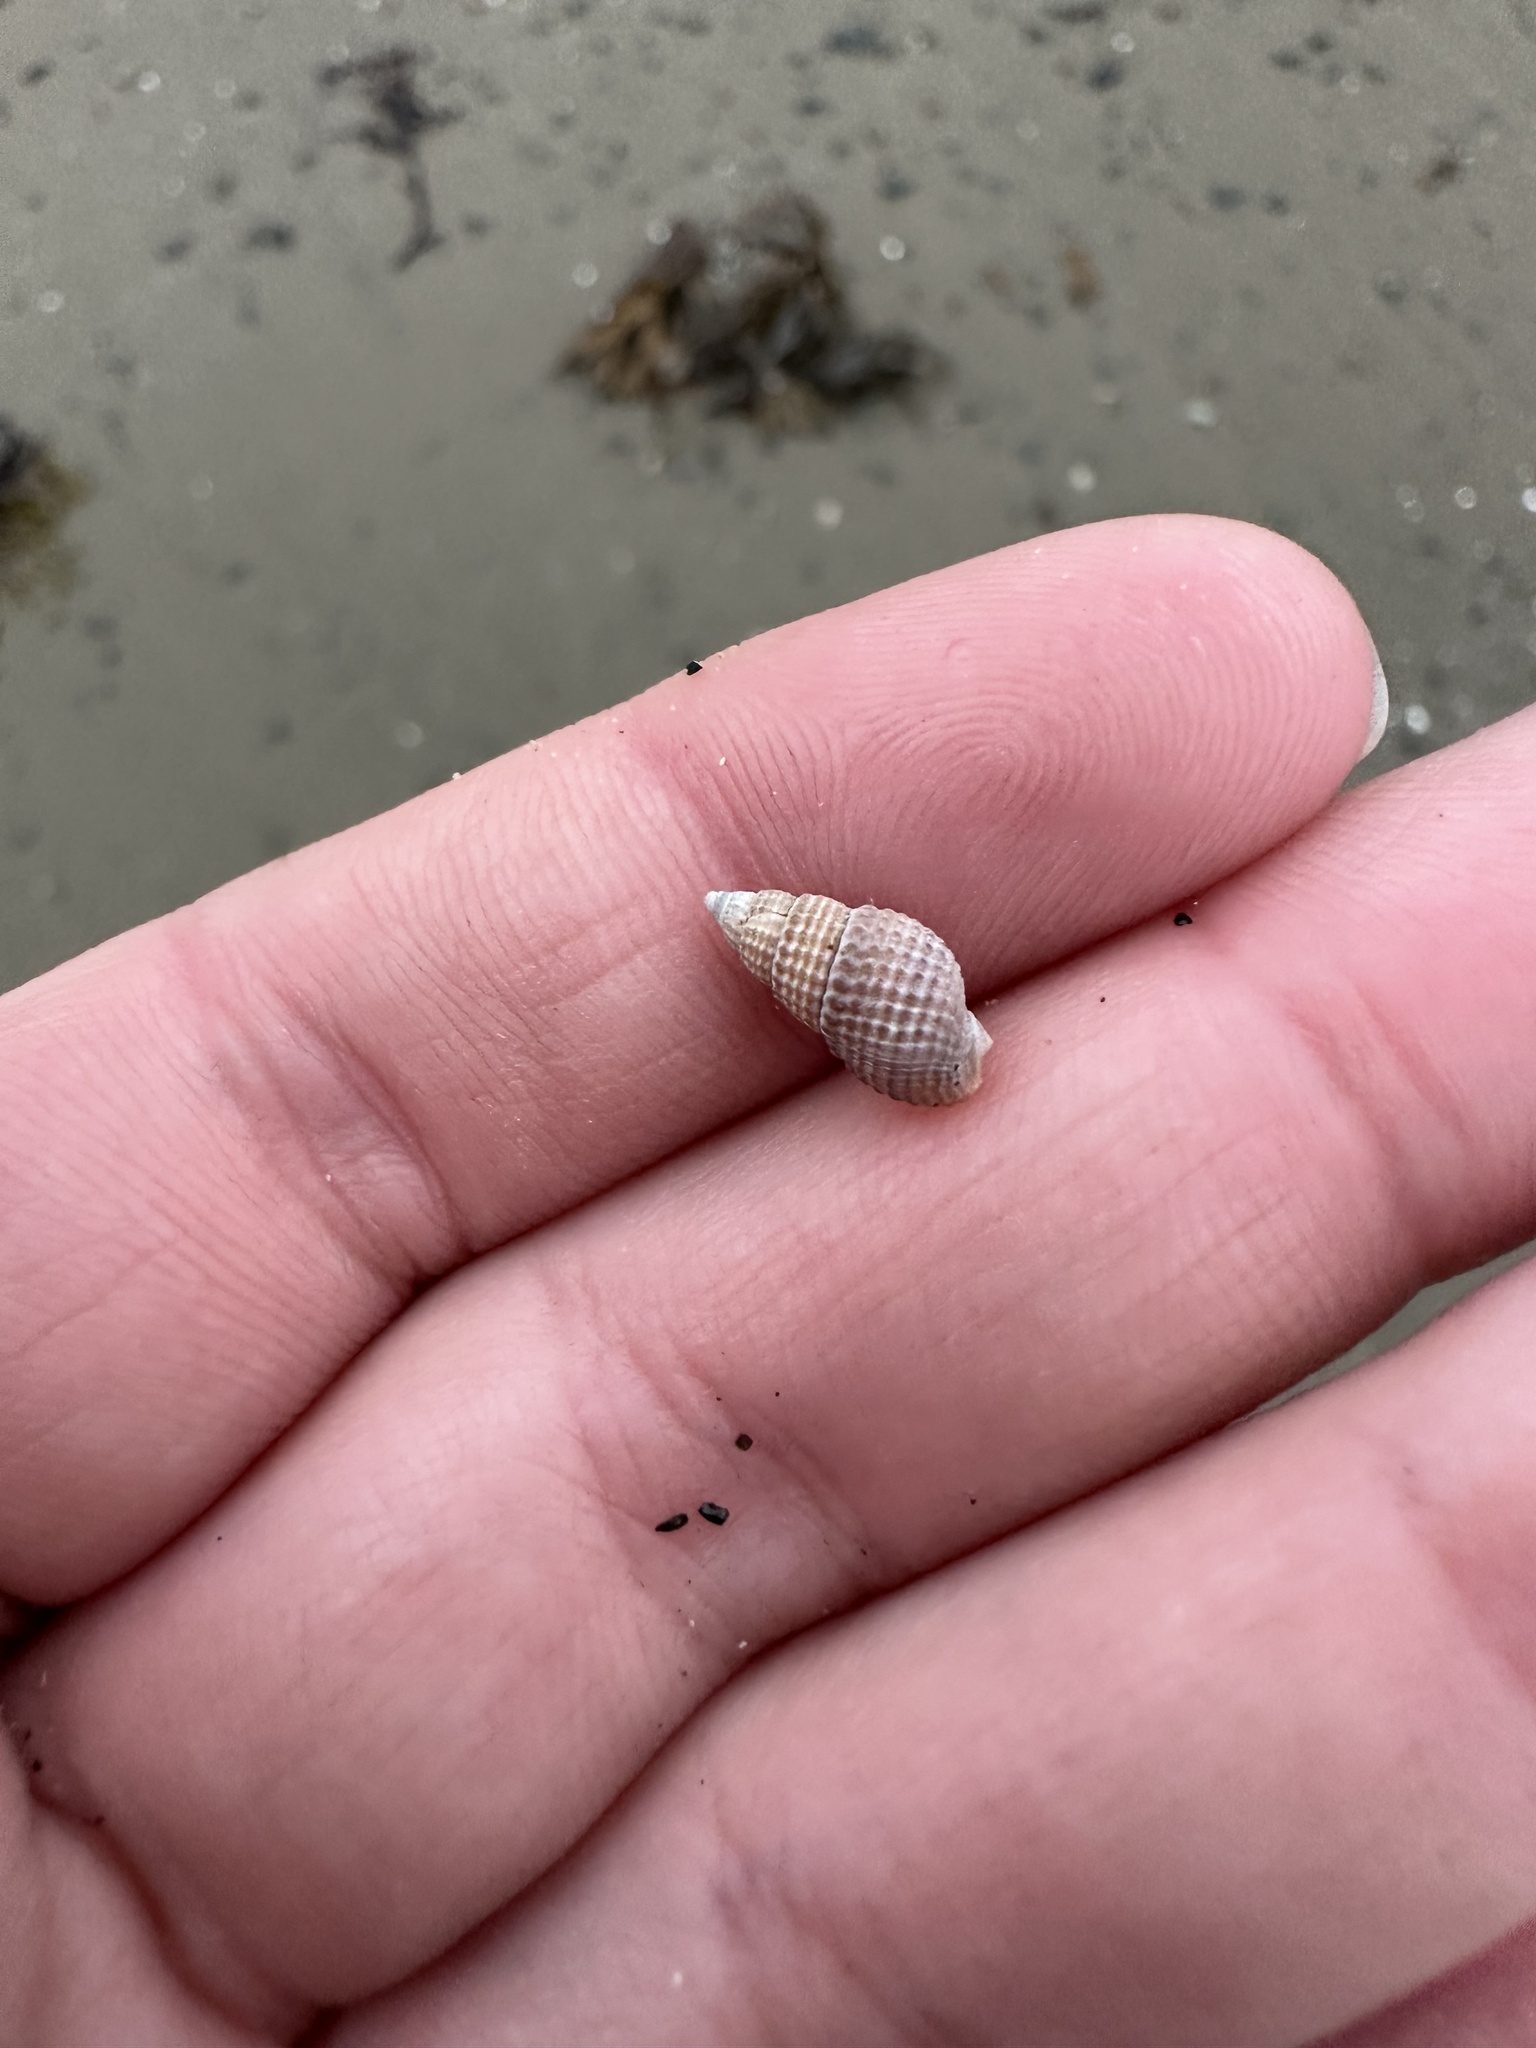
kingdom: Animalia
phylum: Mollusca
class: Gastropoda
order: Neogastropoda
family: Nassariidae
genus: Ilyanassa
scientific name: Ilyanassa trivittata
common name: Three-line mudsnail
